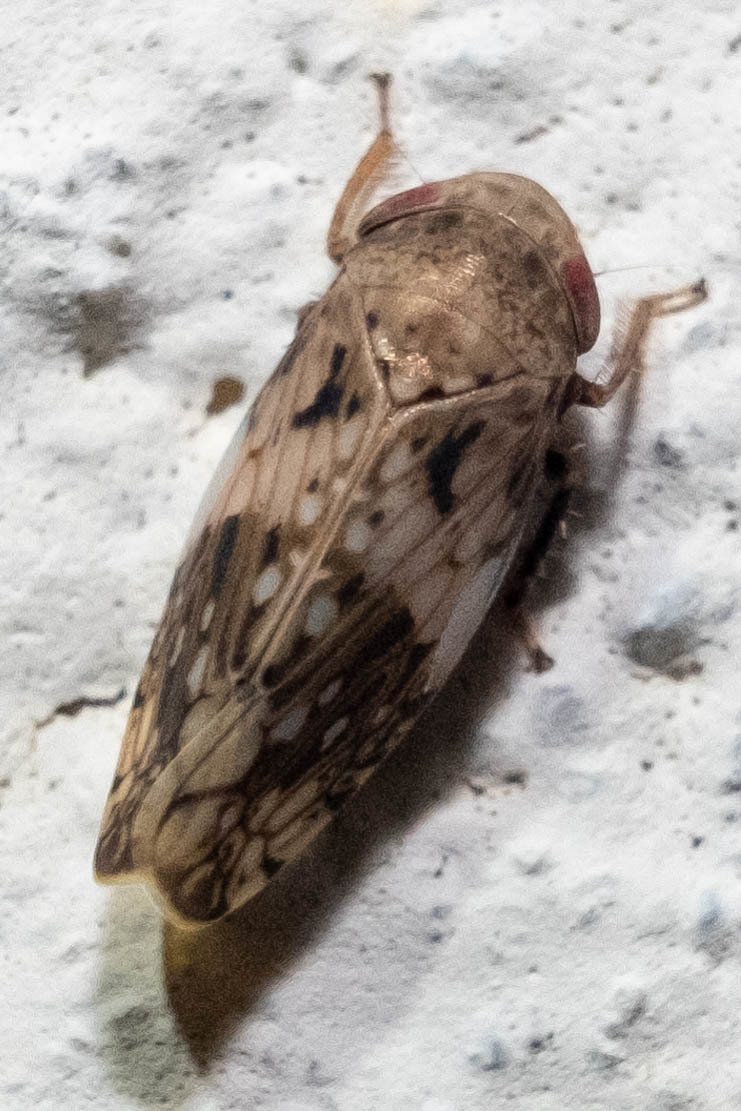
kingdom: Animalia
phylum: Arthropoda
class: Insecta
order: Hemiptera
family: Cicadellidae
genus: Menosoma
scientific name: Menosoma cinctum
